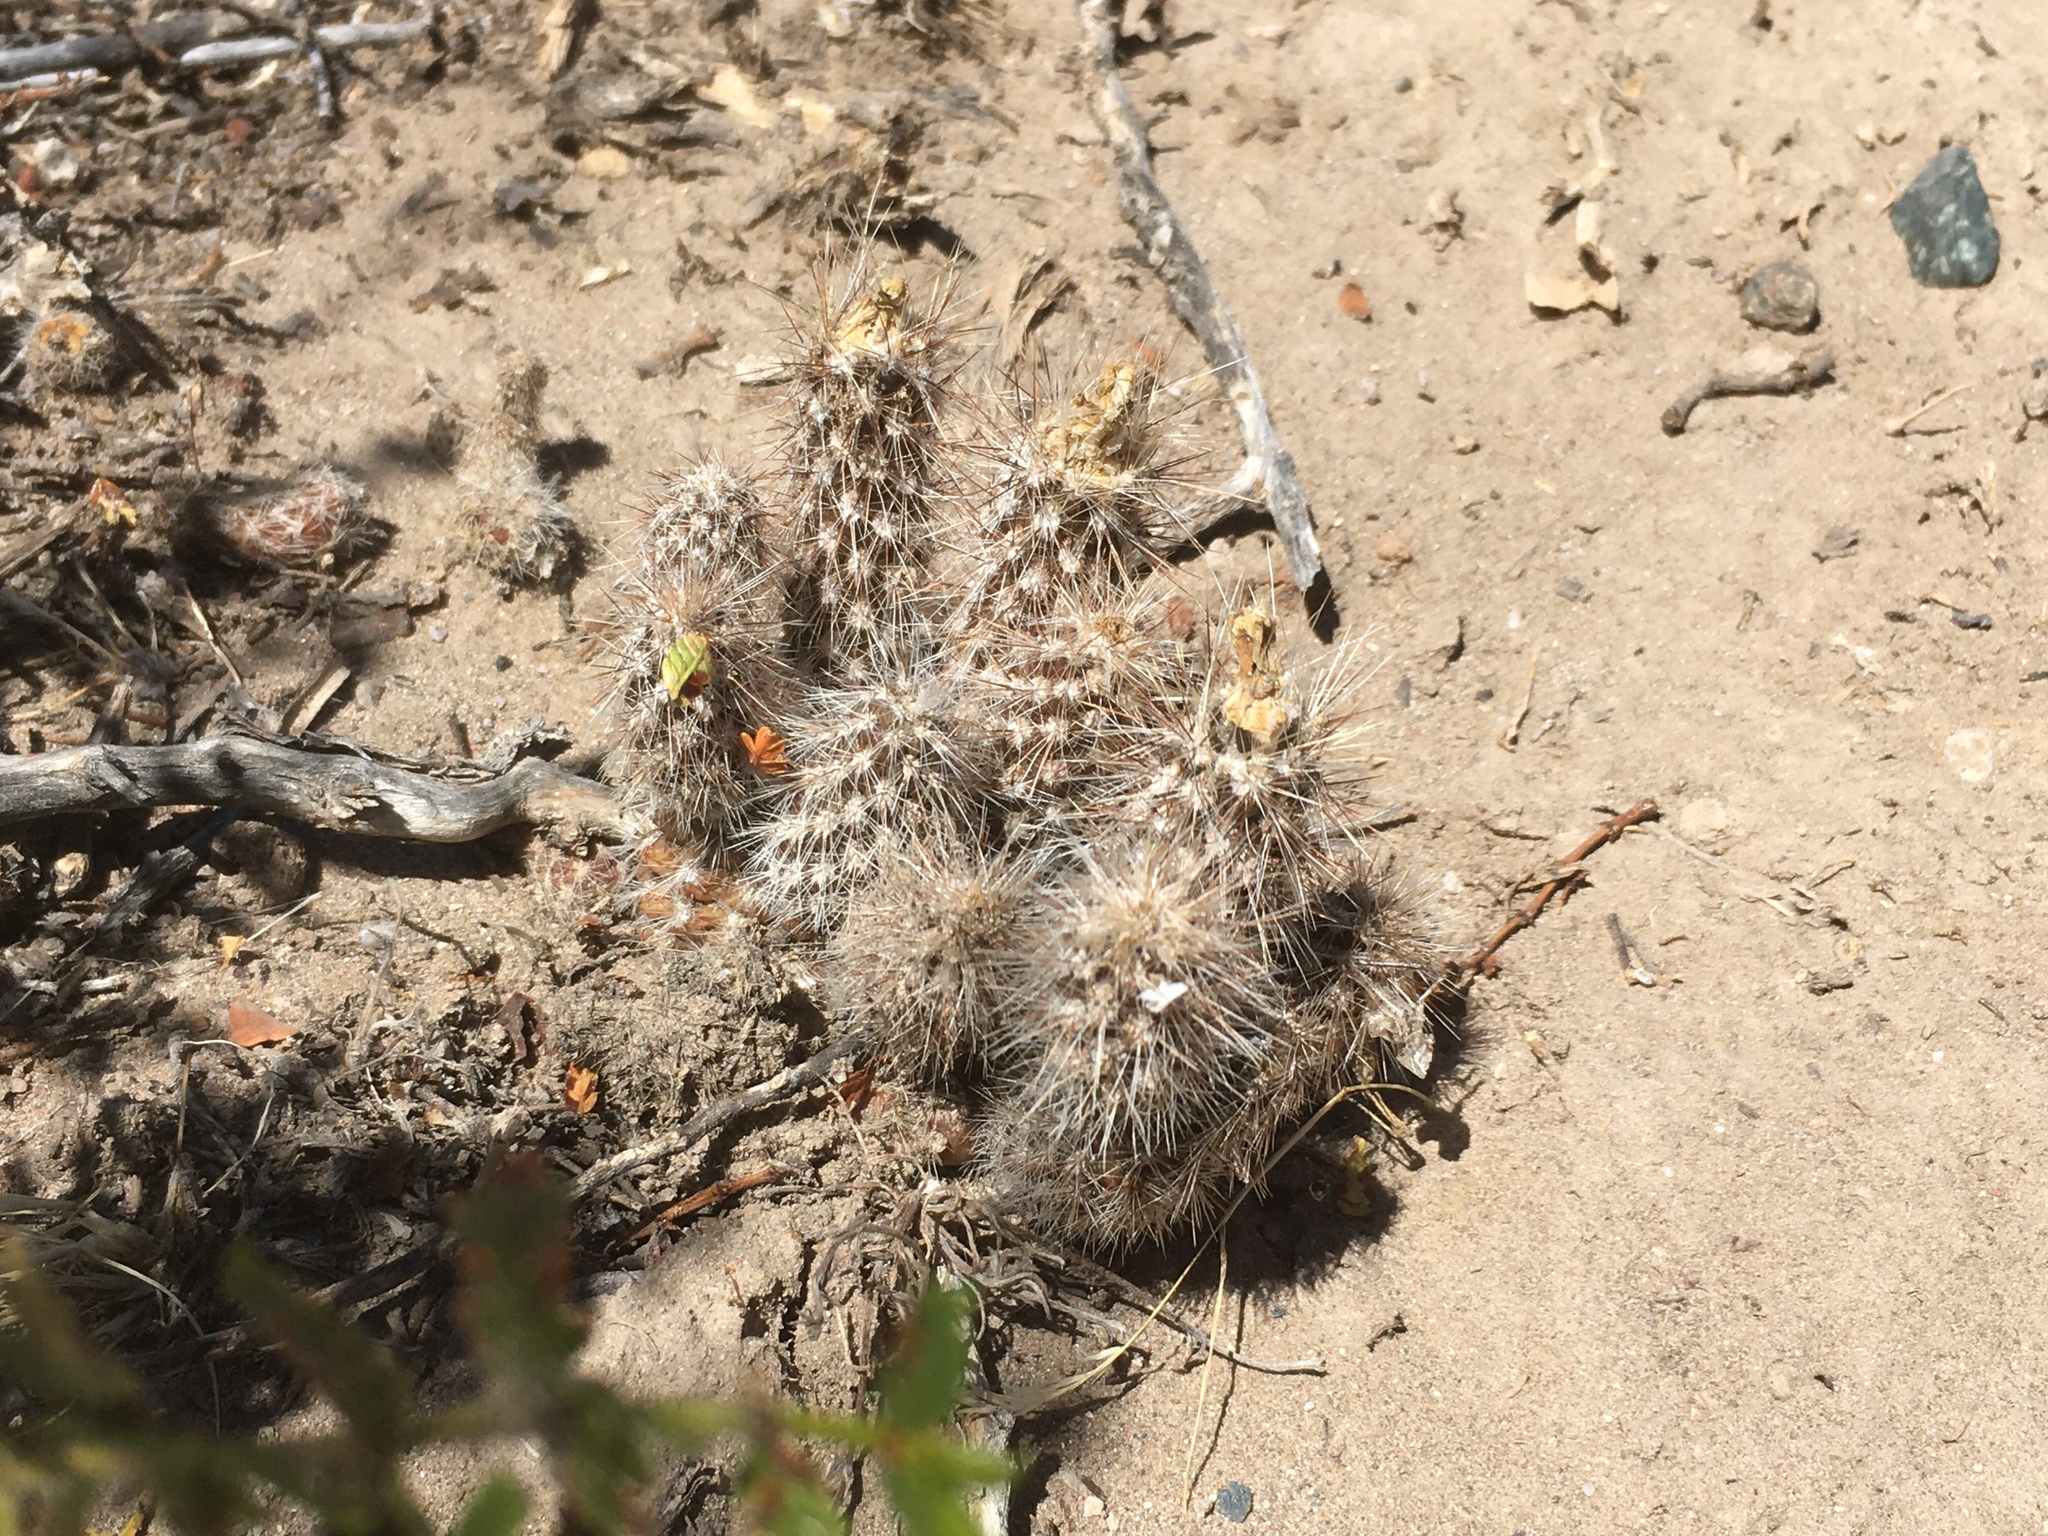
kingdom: Plantae
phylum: Tracheophyta
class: Magnoliopsida
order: Caryophyllales
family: Cactaceae
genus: Pterocactus
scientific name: Pterocactus valentini
